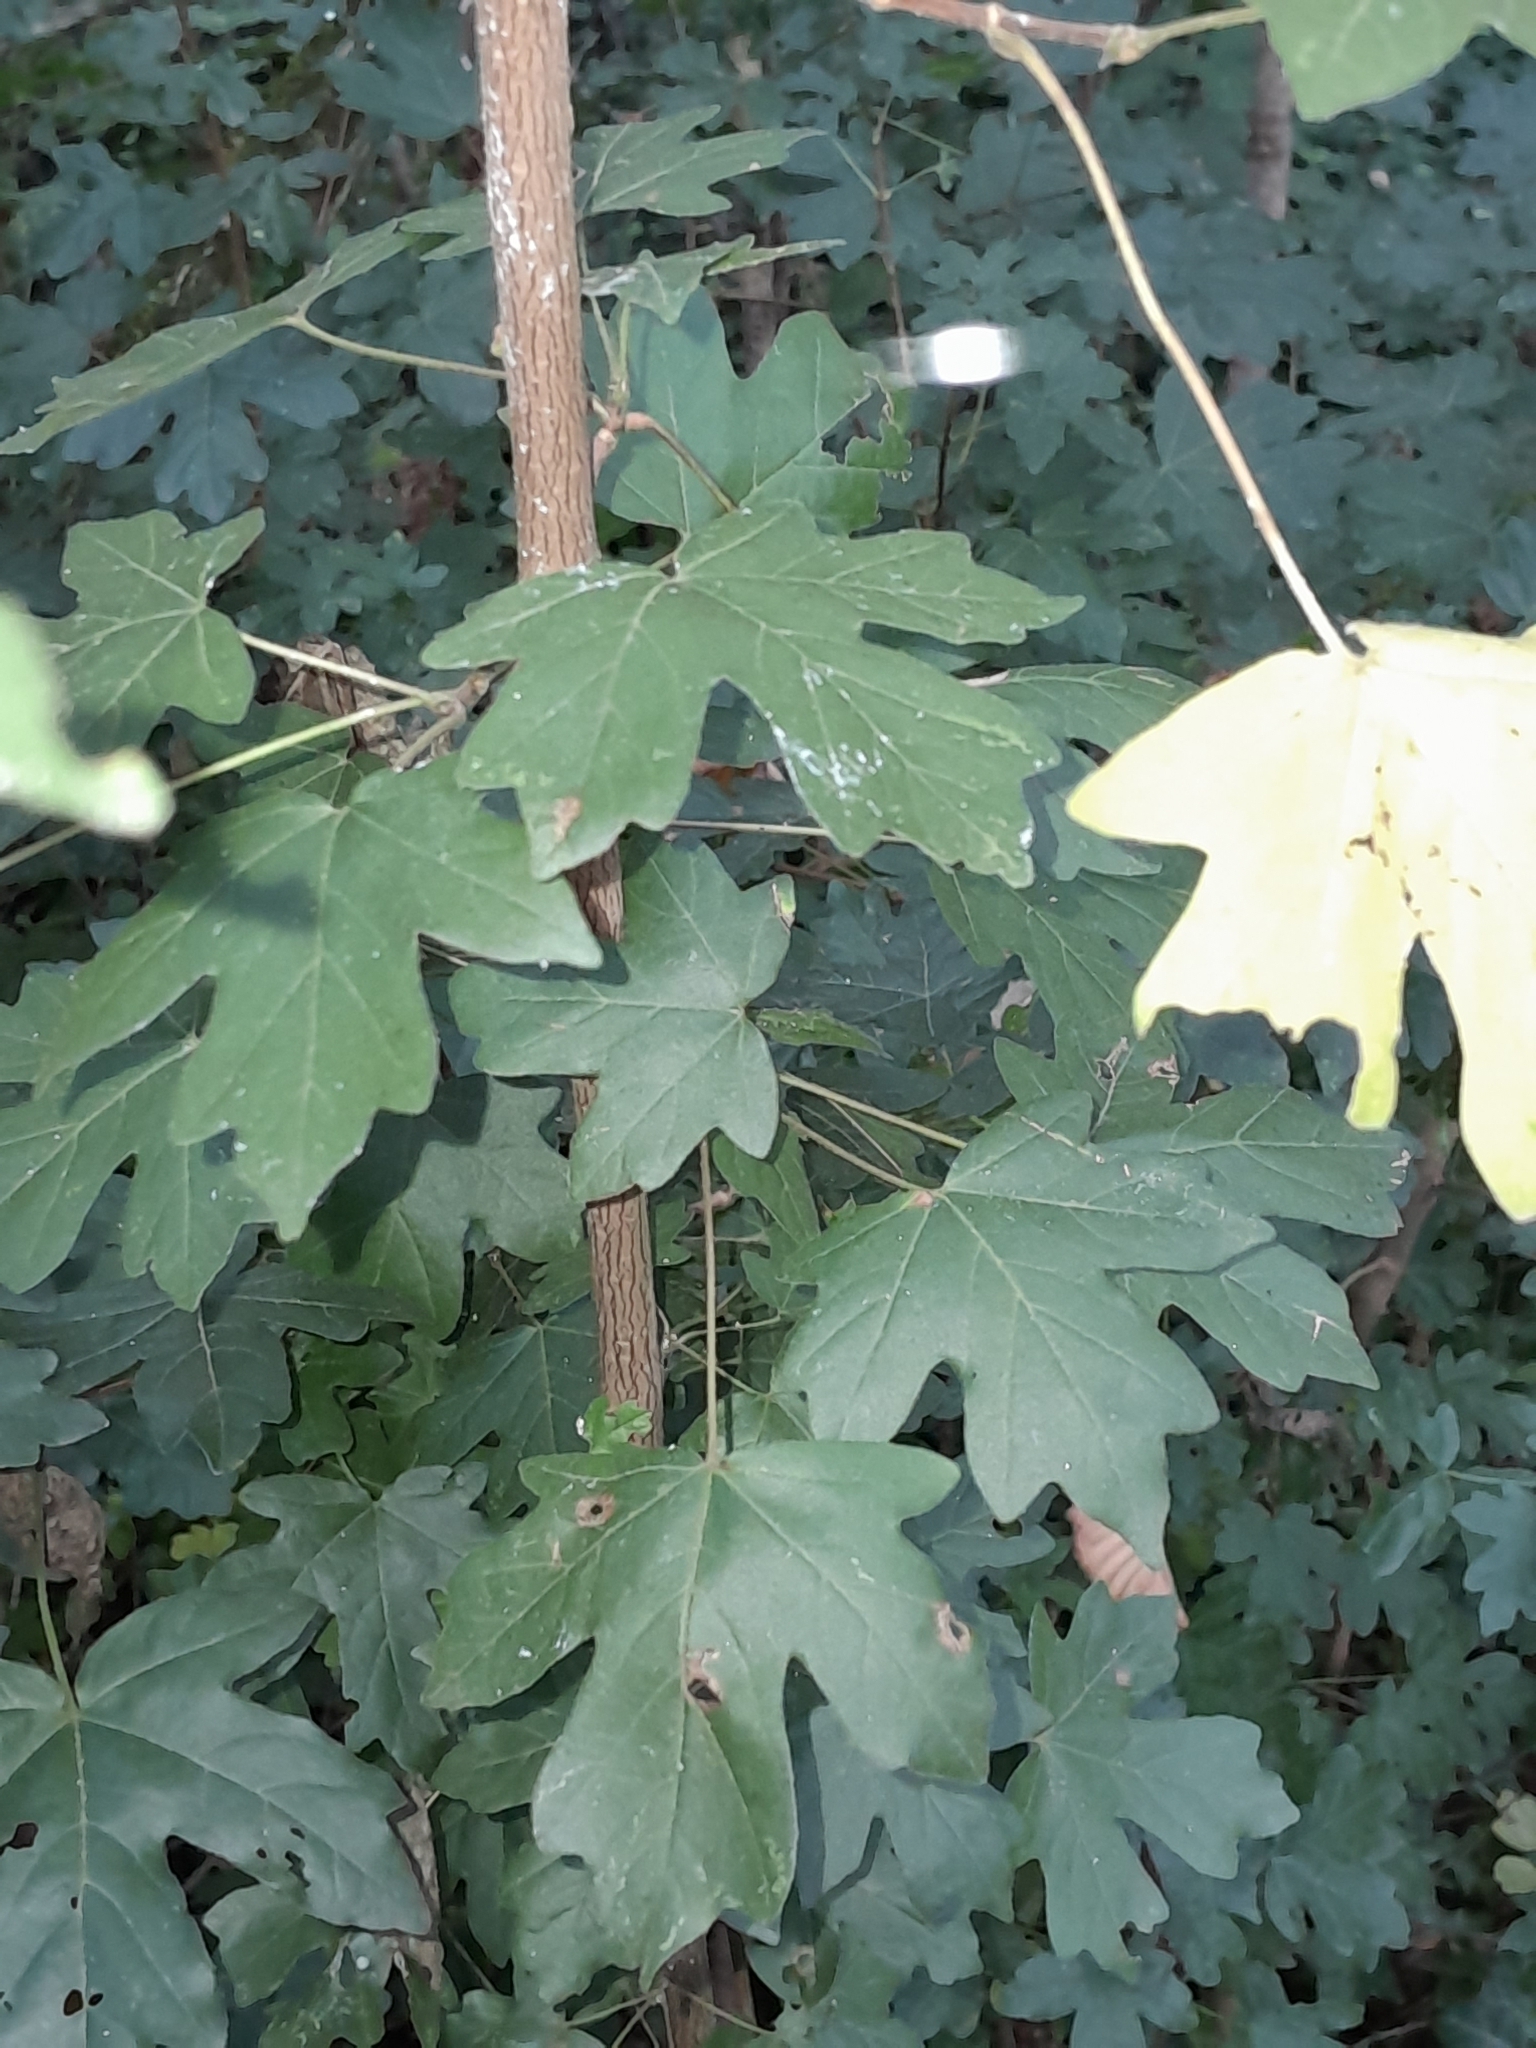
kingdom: Plantae
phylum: Tracheophyta
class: Magnoliopsida
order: Sapindales
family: Sapindaceae
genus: Acer
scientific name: Acer campestre
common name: Field maple
